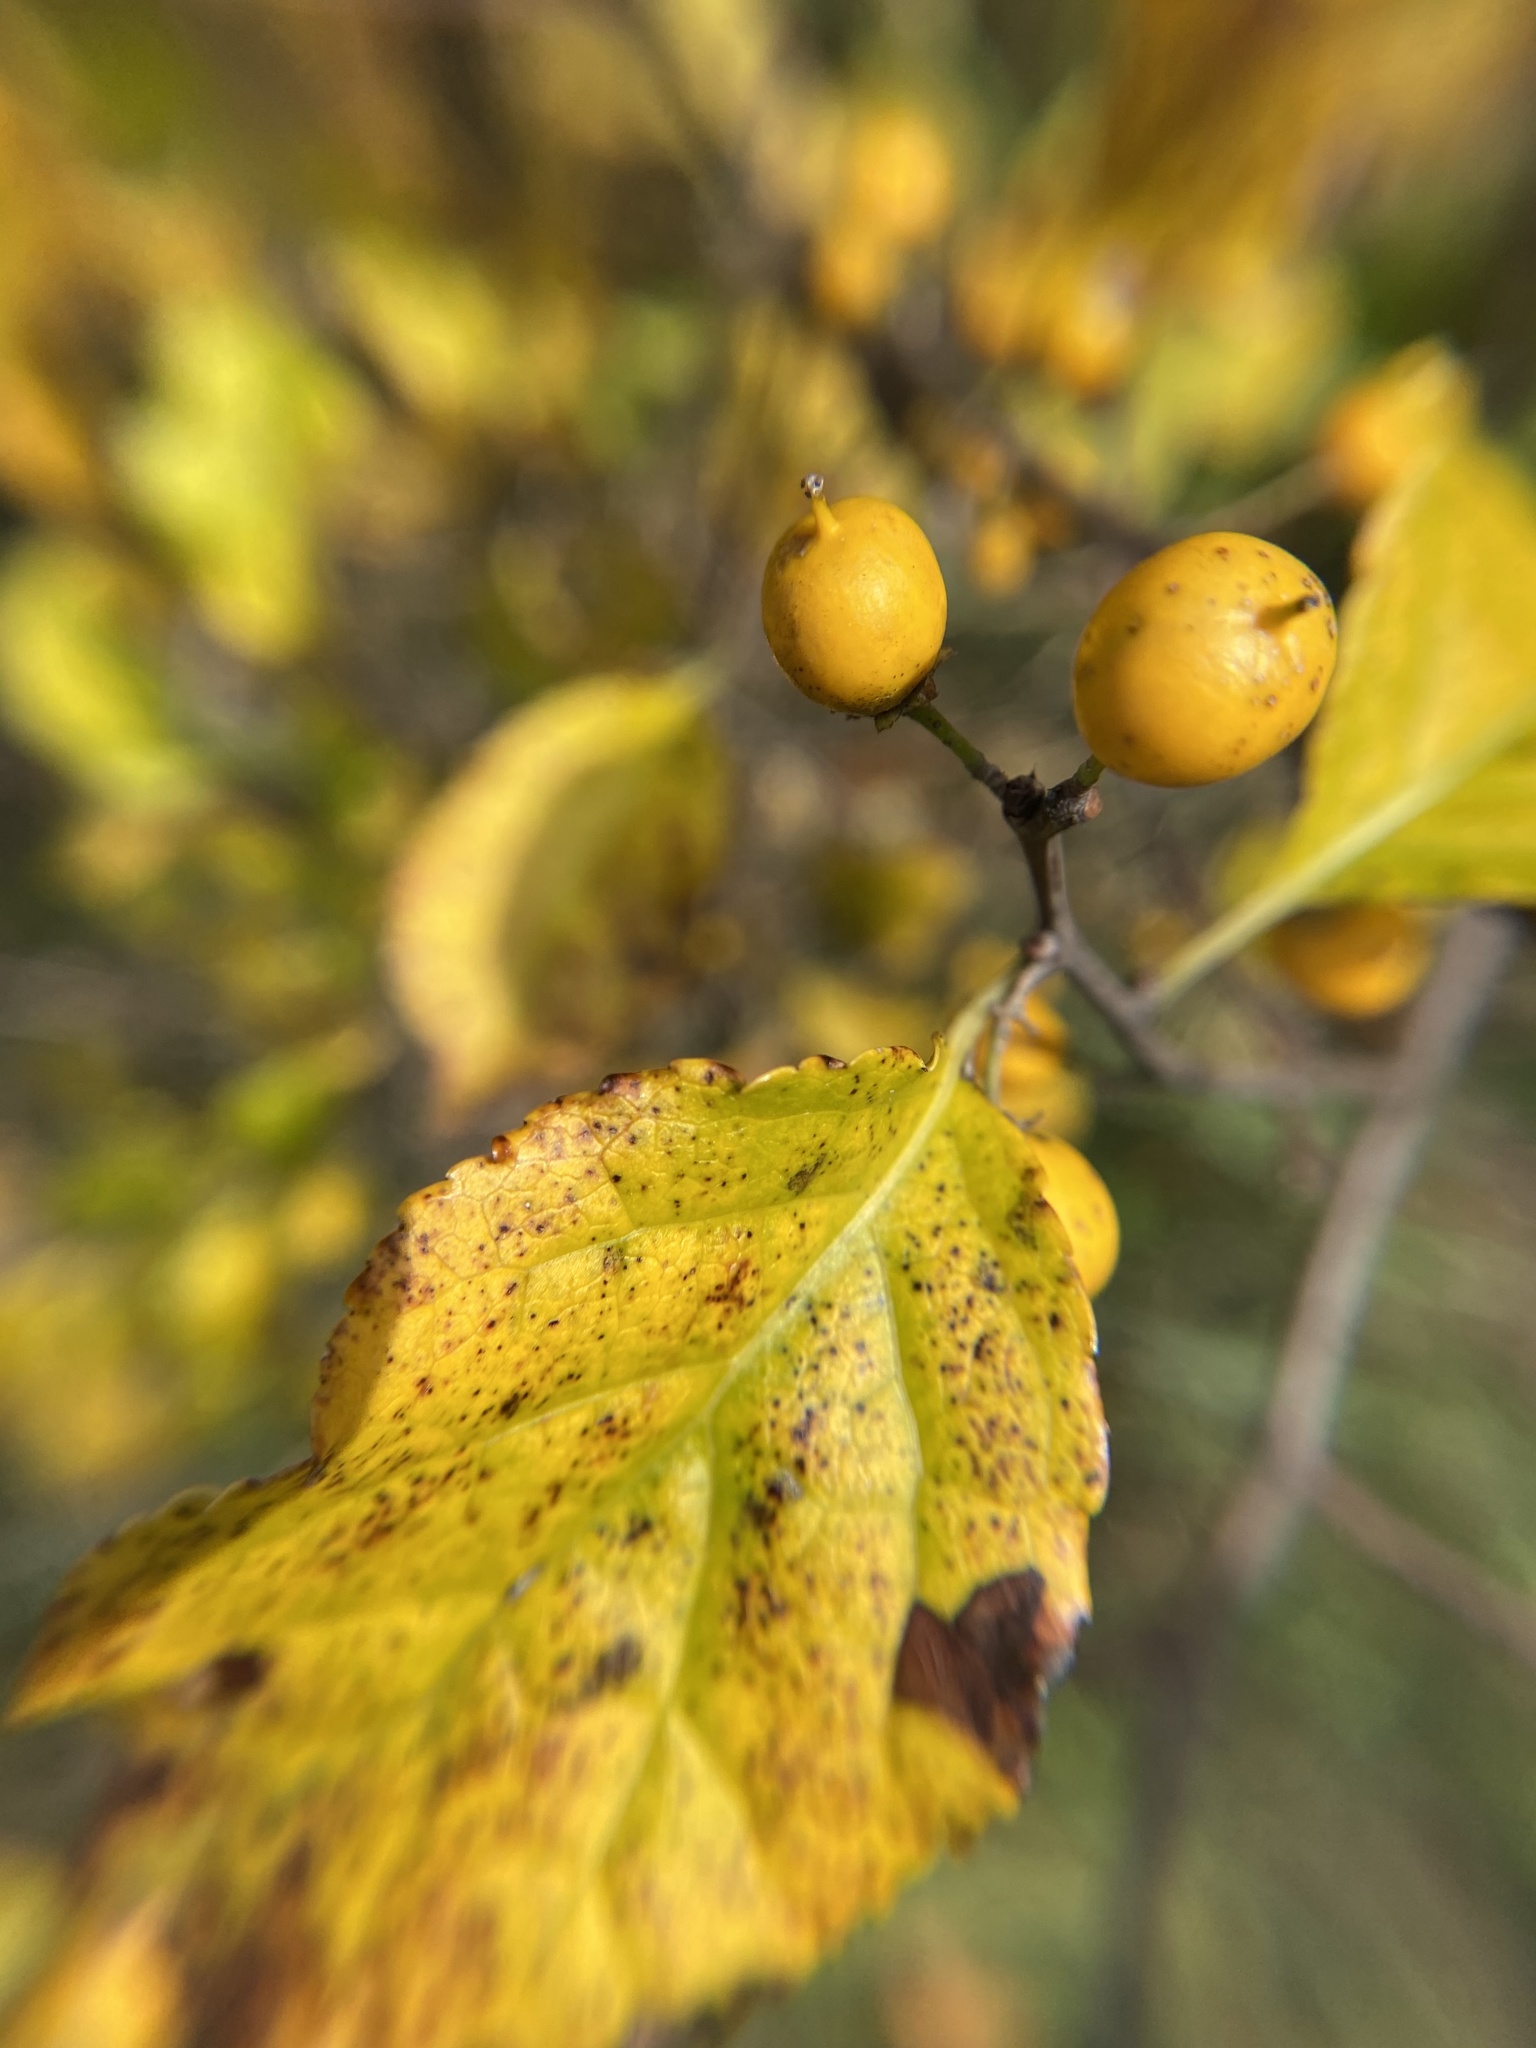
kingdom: Plantae
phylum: Tracheophyta
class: Magnoliopsida
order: Celastrales
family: Celastraceae
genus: Celastrus
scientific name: Celastrus orbiculatus
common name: Oriental bittersweet
